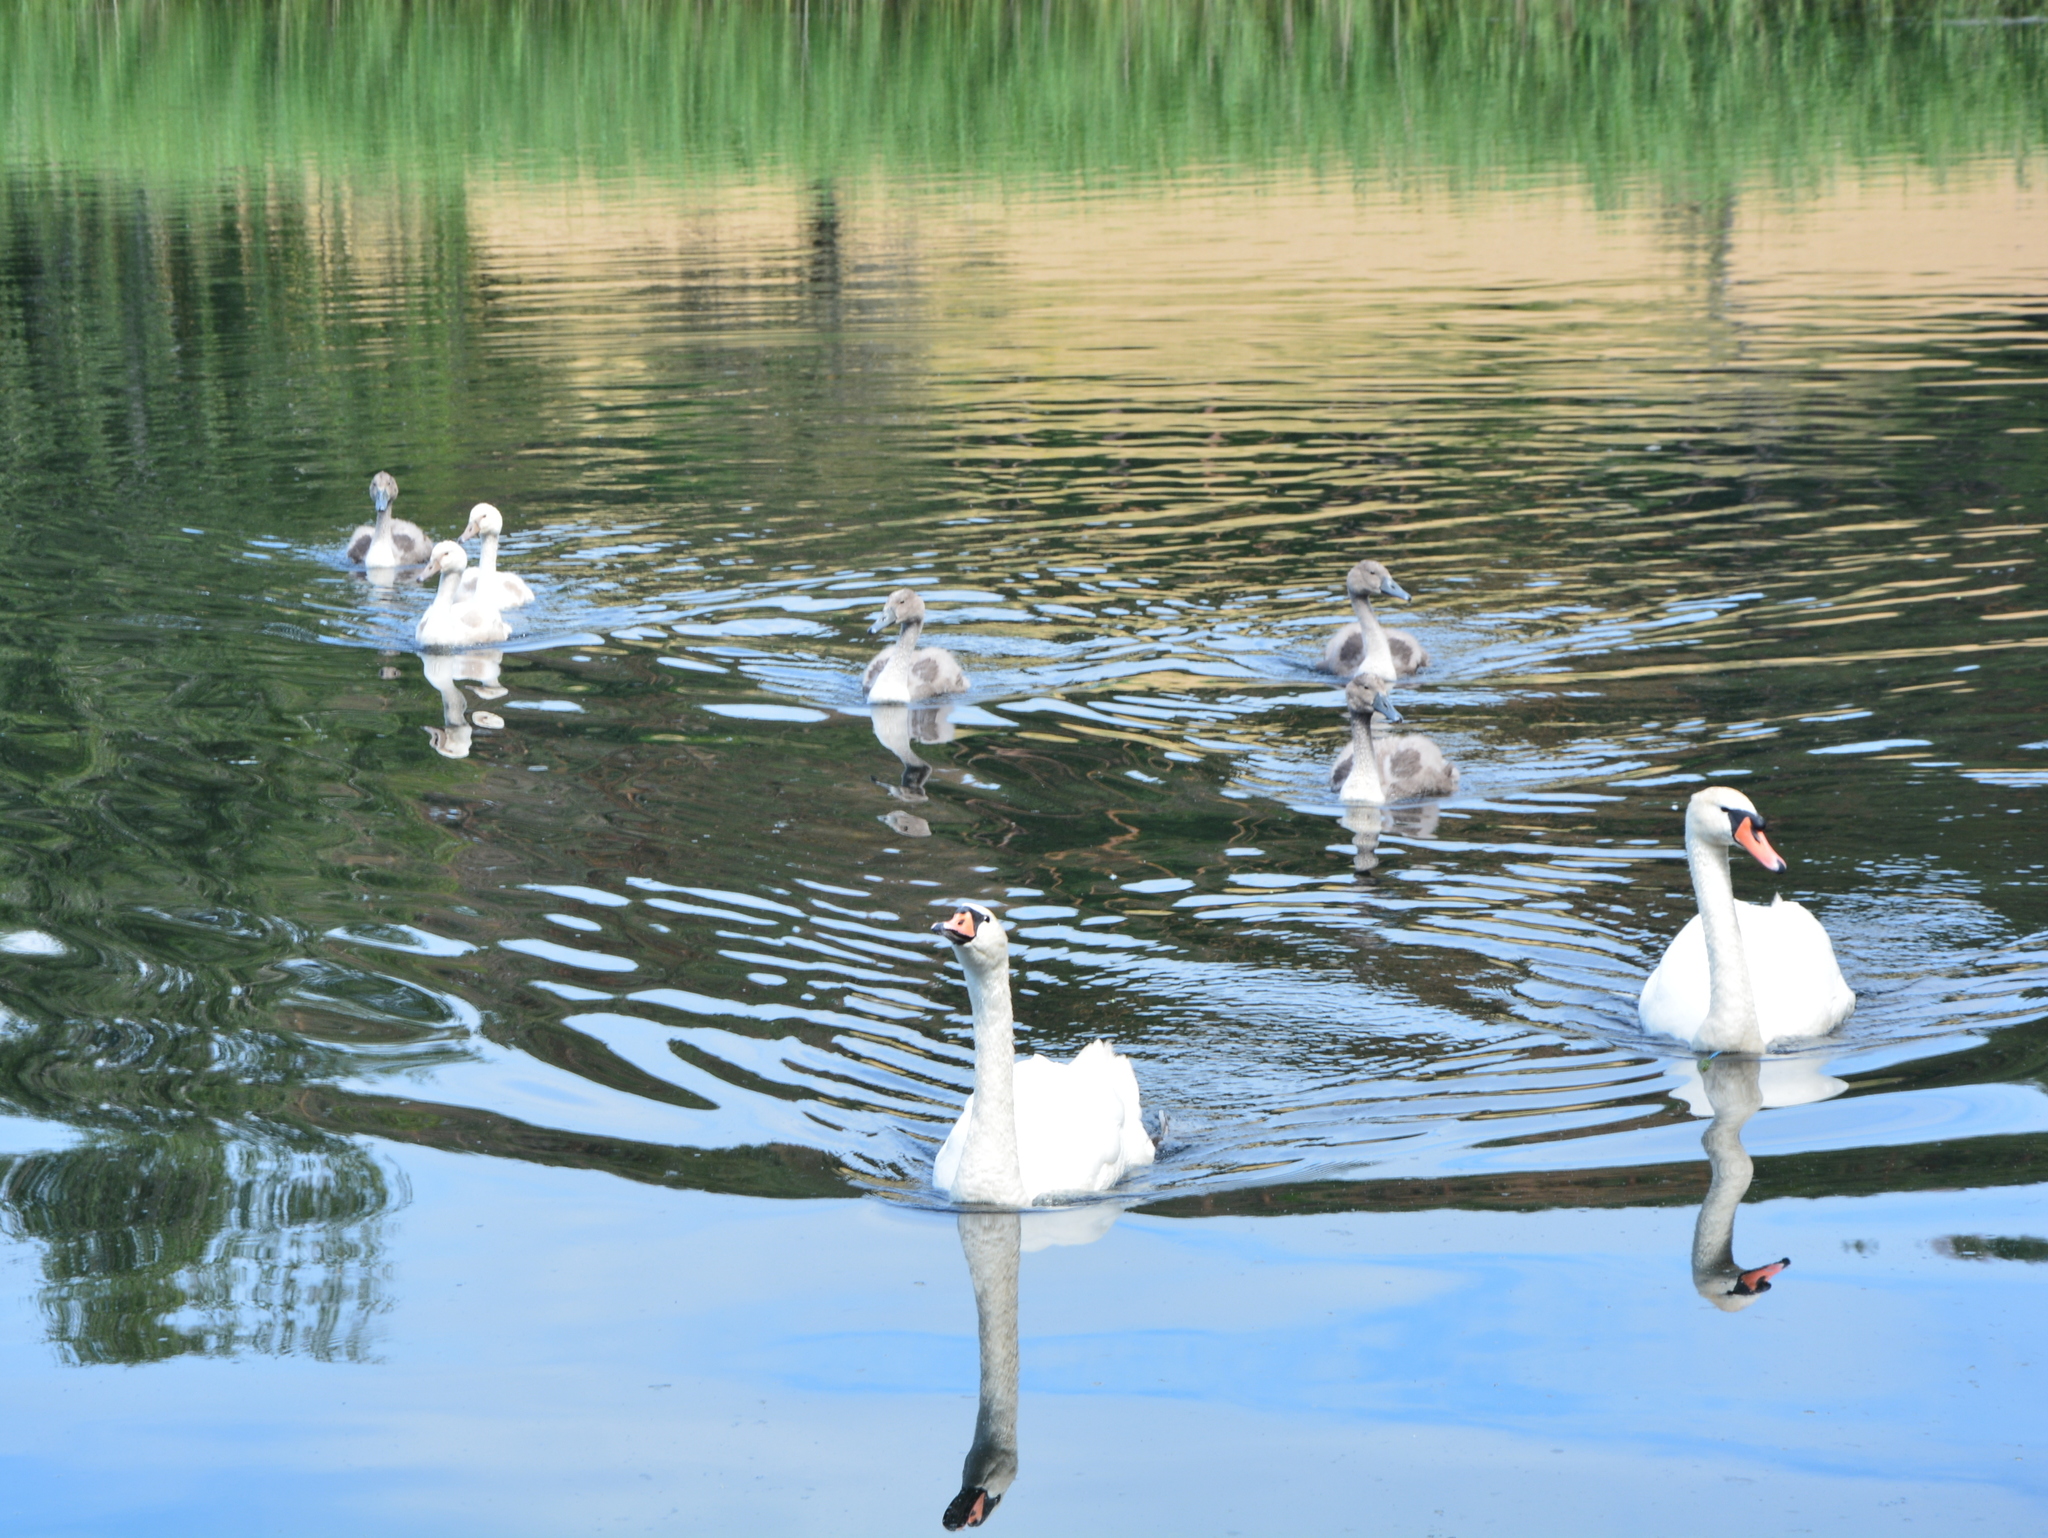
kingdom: Animalia
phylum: Chordata
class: Aves
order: Anseriformes
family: Anatidae
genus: Cygnus
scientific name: Cygnus olor
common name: Mute swan
